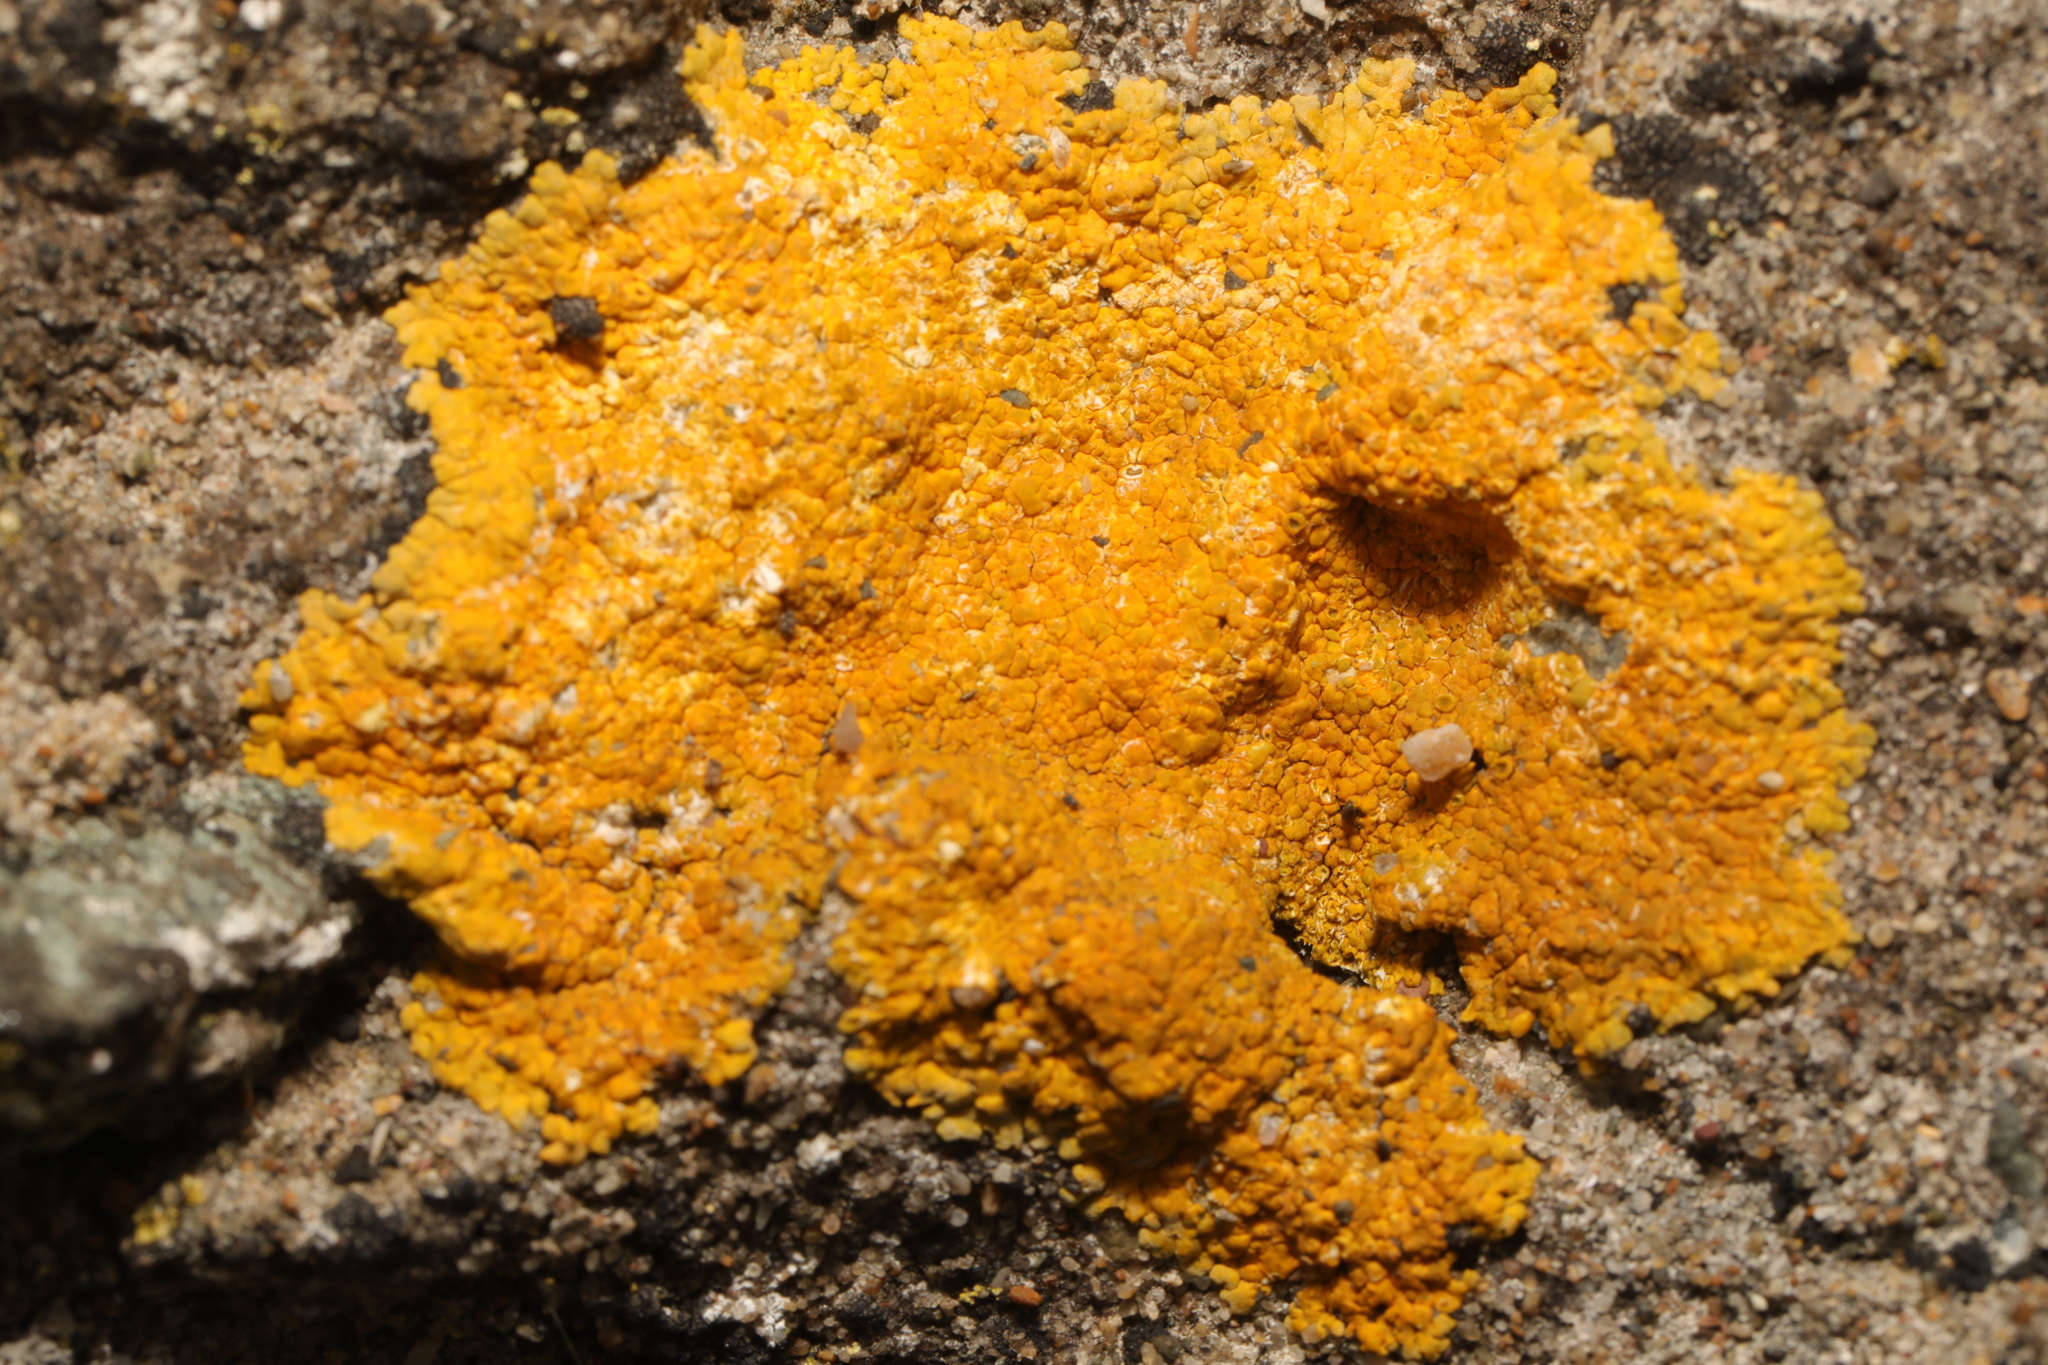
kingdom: Fungi
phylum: Ascomycota
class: Lecanoromycetes
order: Teloschistales
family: Teloschistaceae
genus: Variospora
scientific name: Variospora flavescens
